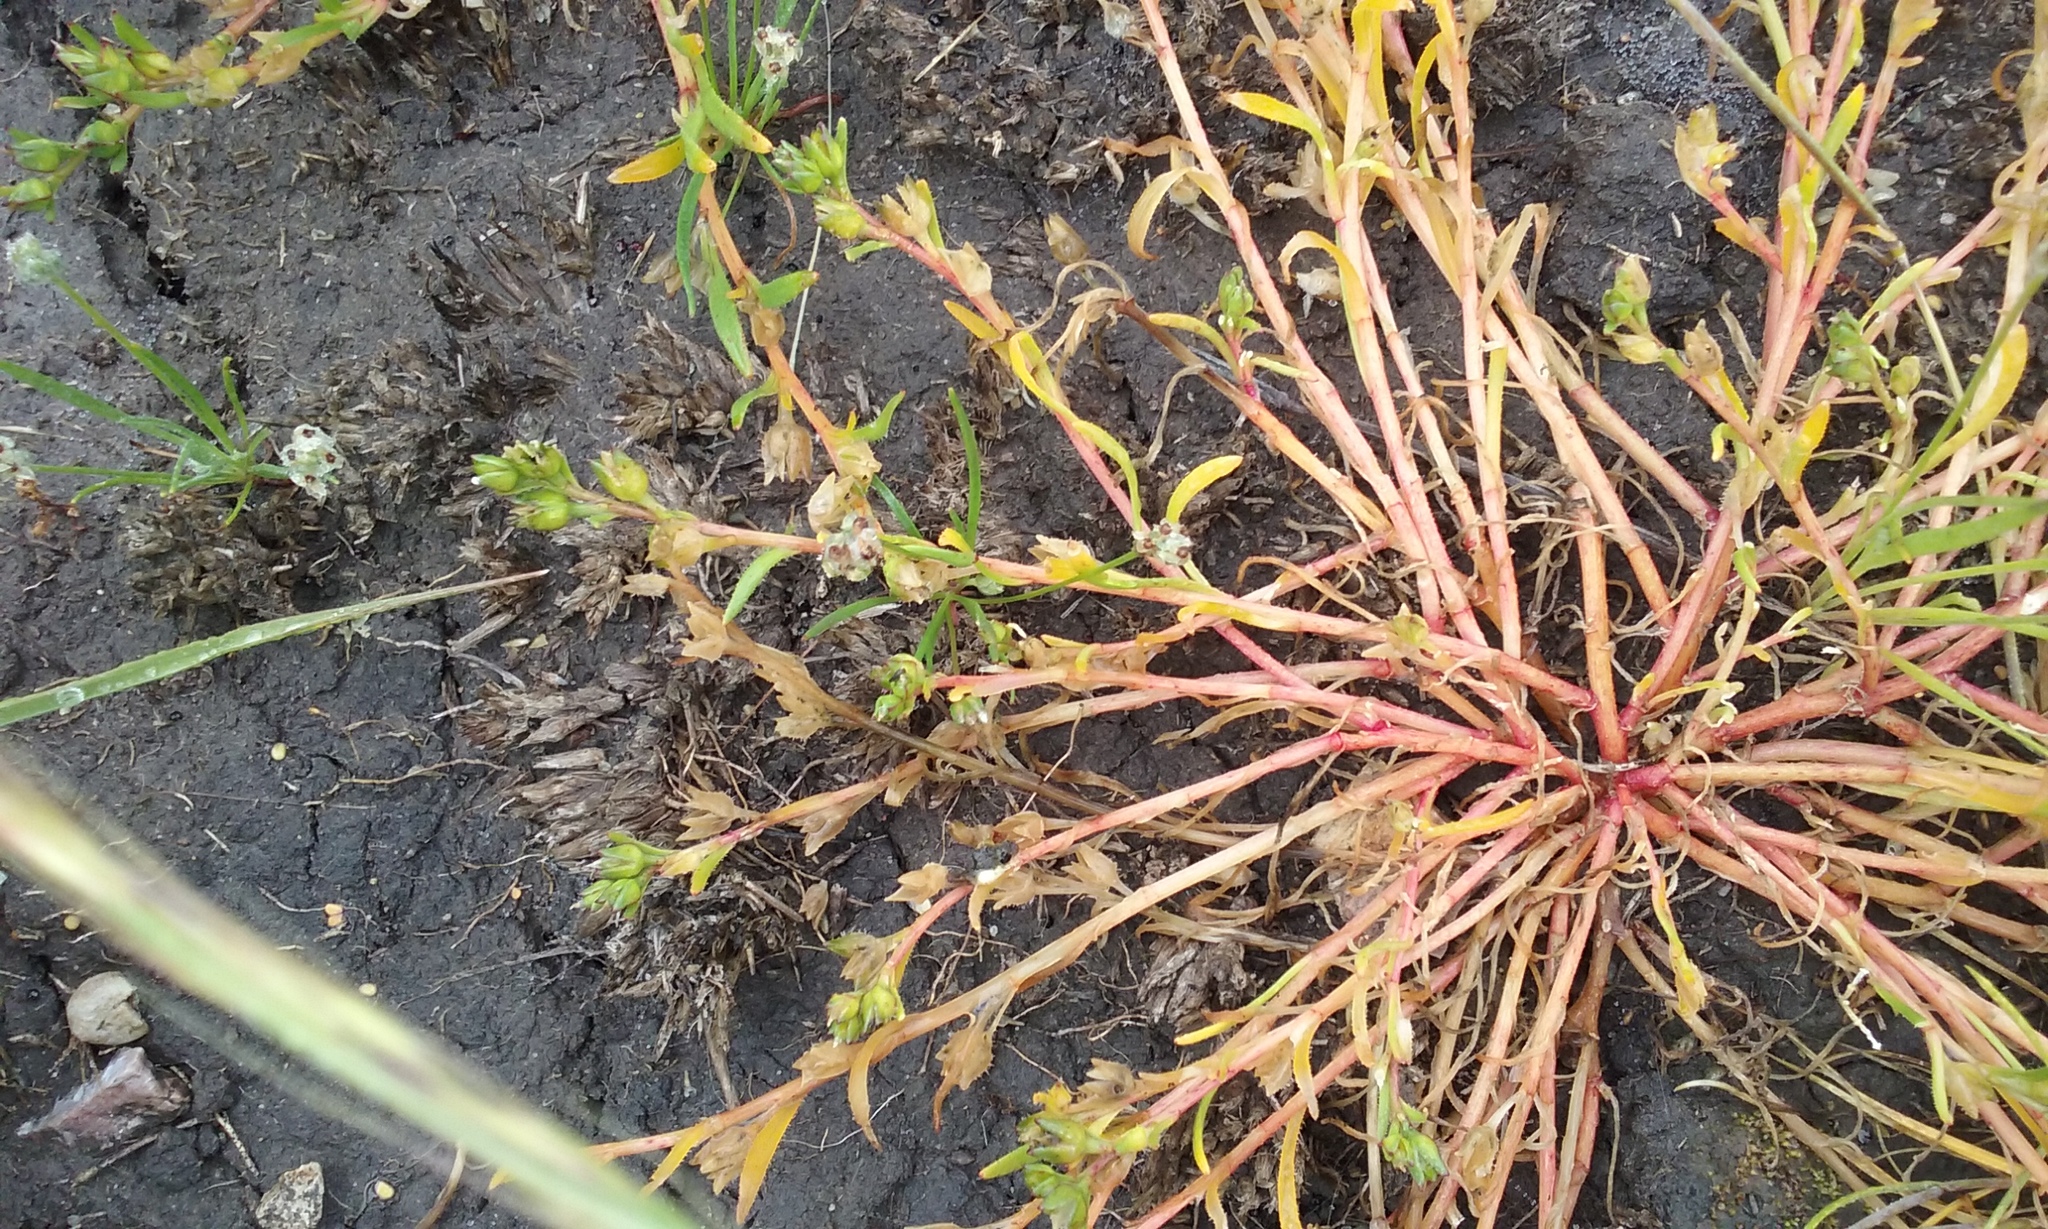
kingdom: Plantae
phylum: Tracheophyta
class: Magnoliopsida
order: Caryophyllales
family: Montiaceae
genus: Calandrinia
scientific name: Calandrinia menziesii
